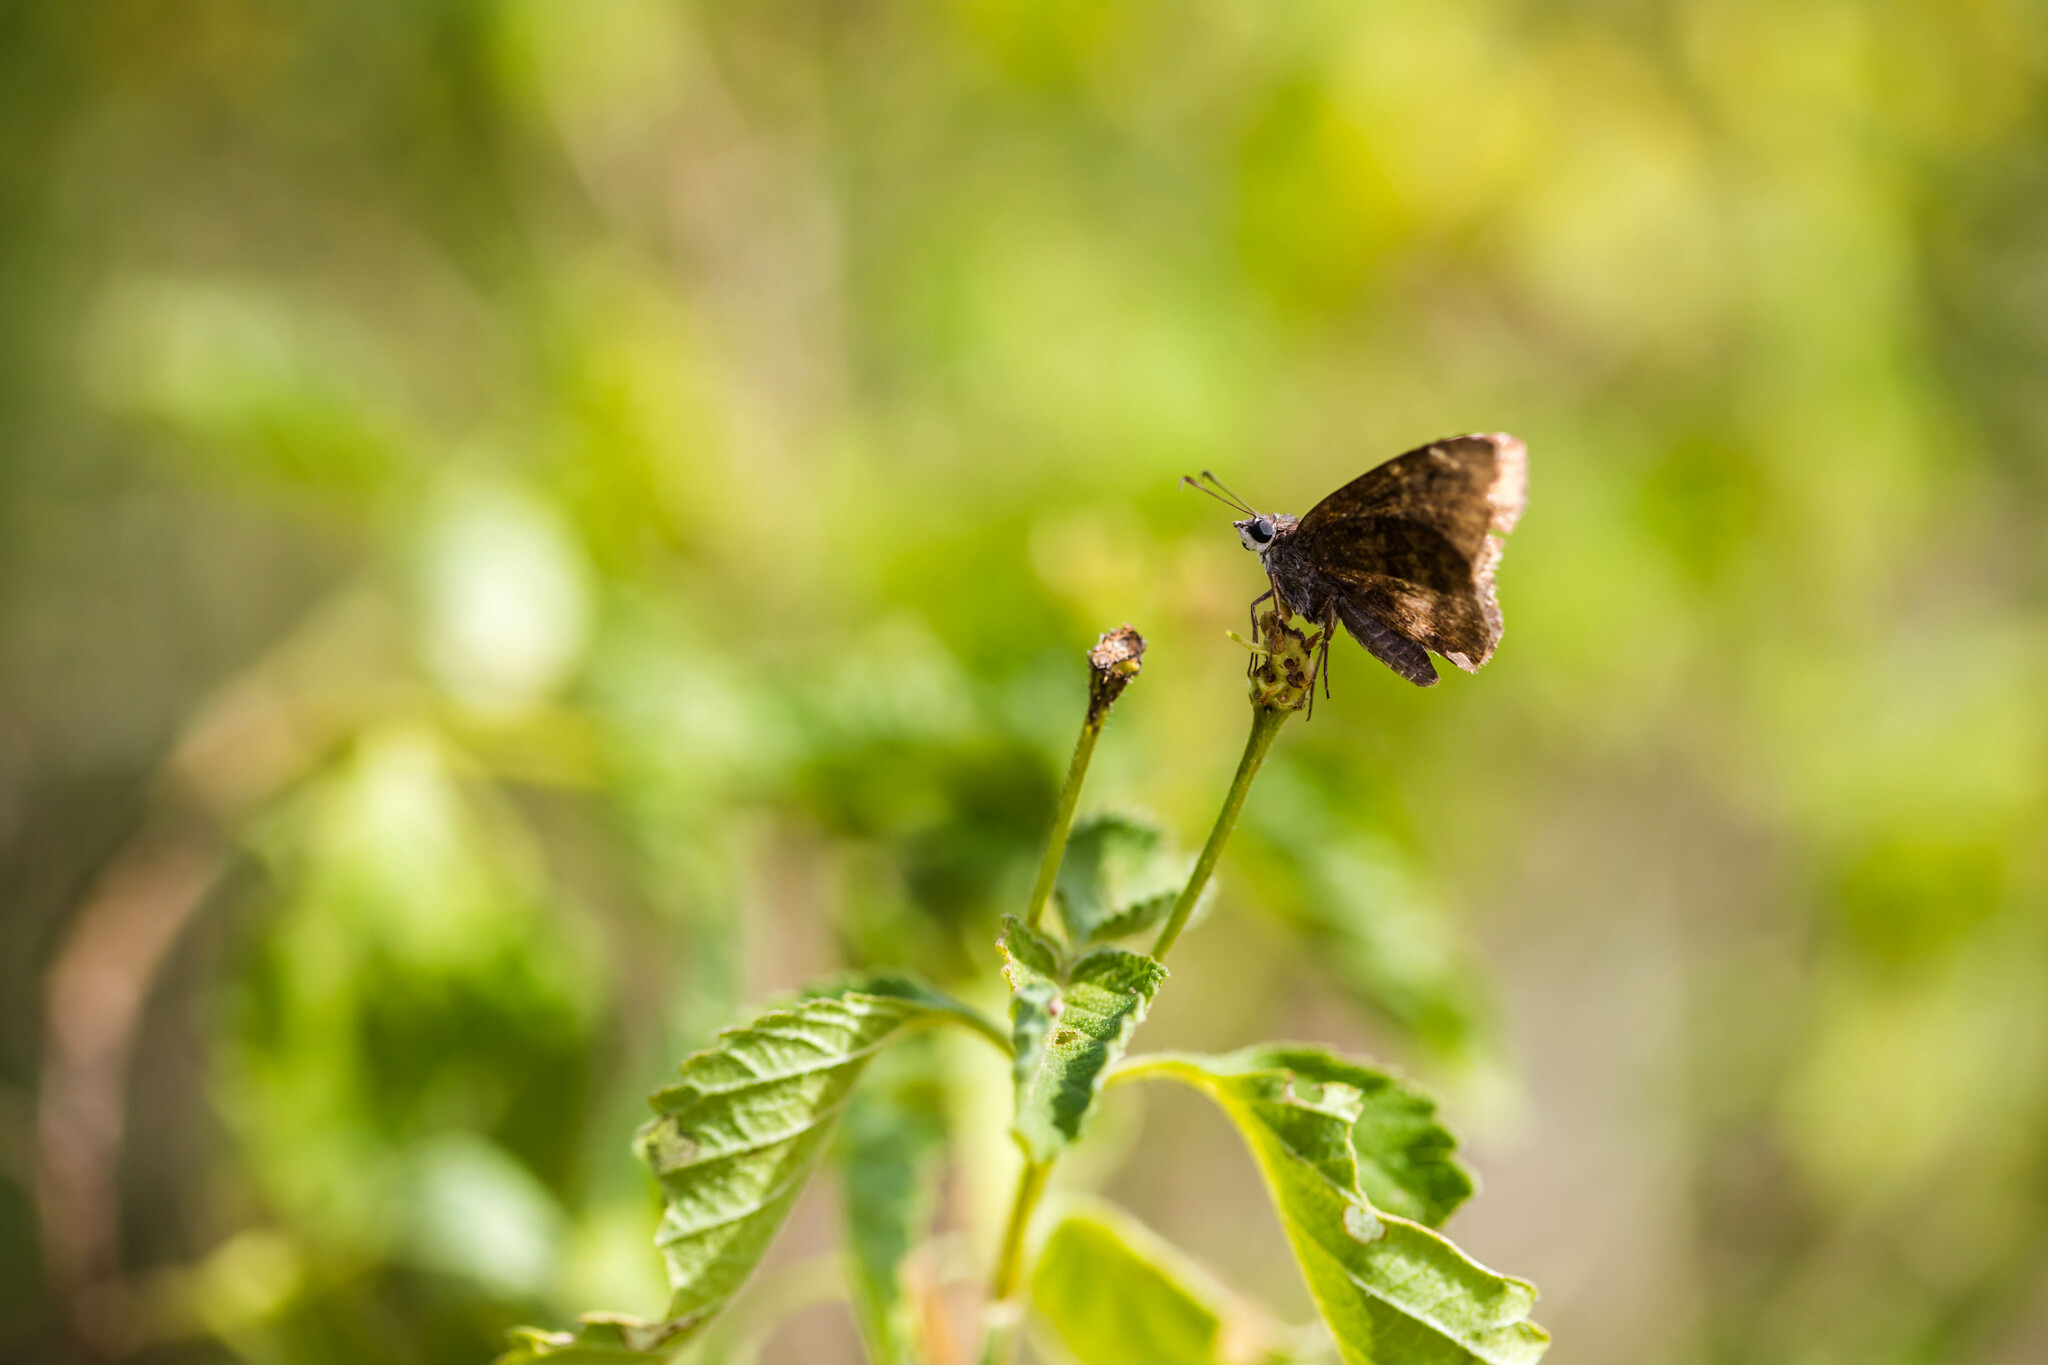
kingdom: Animalia
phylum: Arthropoda
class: Insecta
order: Lepidoptera
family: Hesperiidae
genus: Caicella
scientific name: Caicella calchas
